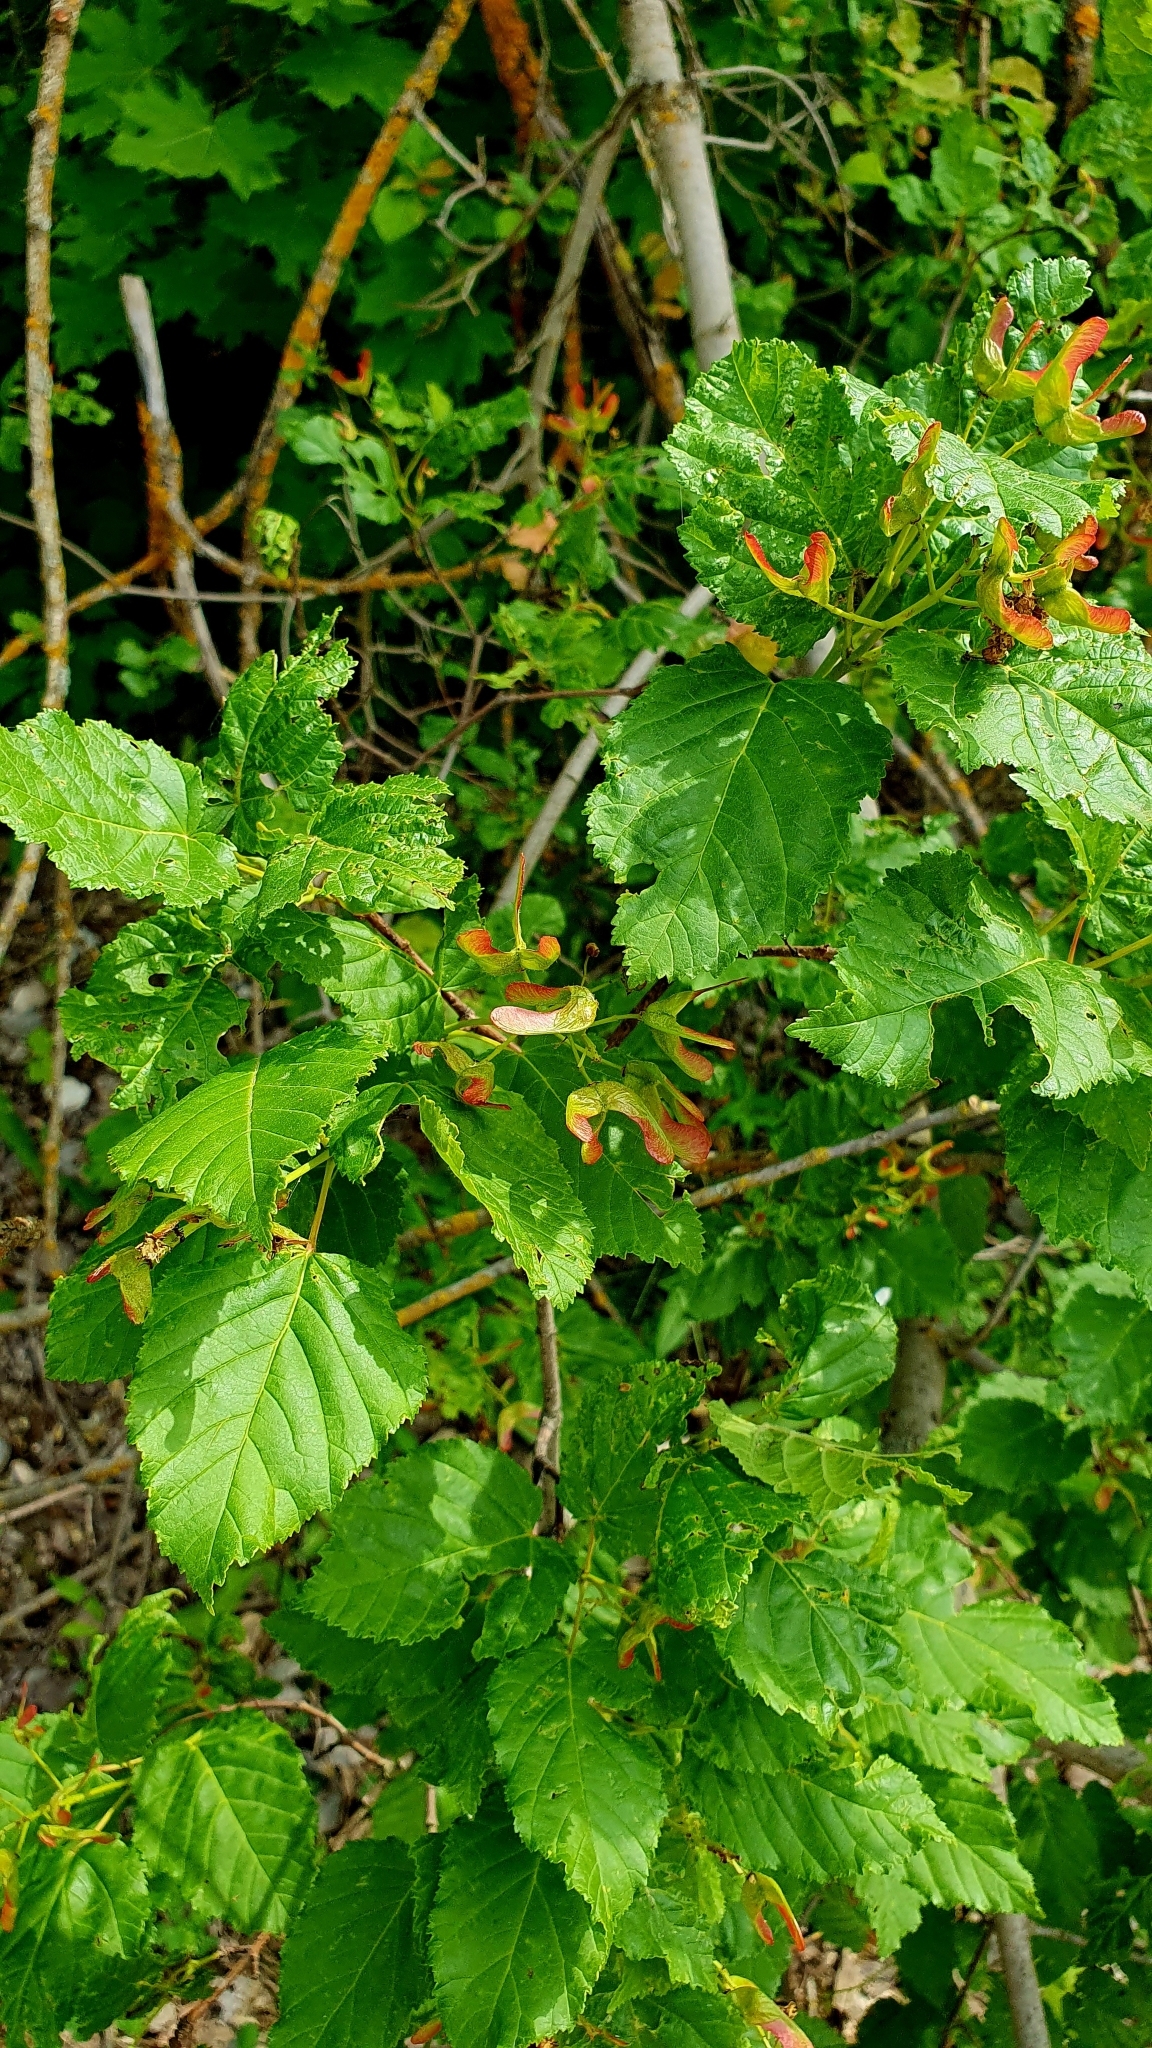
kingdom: Plantae
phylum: Tracheophyta
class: Magnoliopsida
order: Sapindales
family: Sapindaceae
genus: Acer
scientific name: Acer tataricum
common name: Tartar maple
